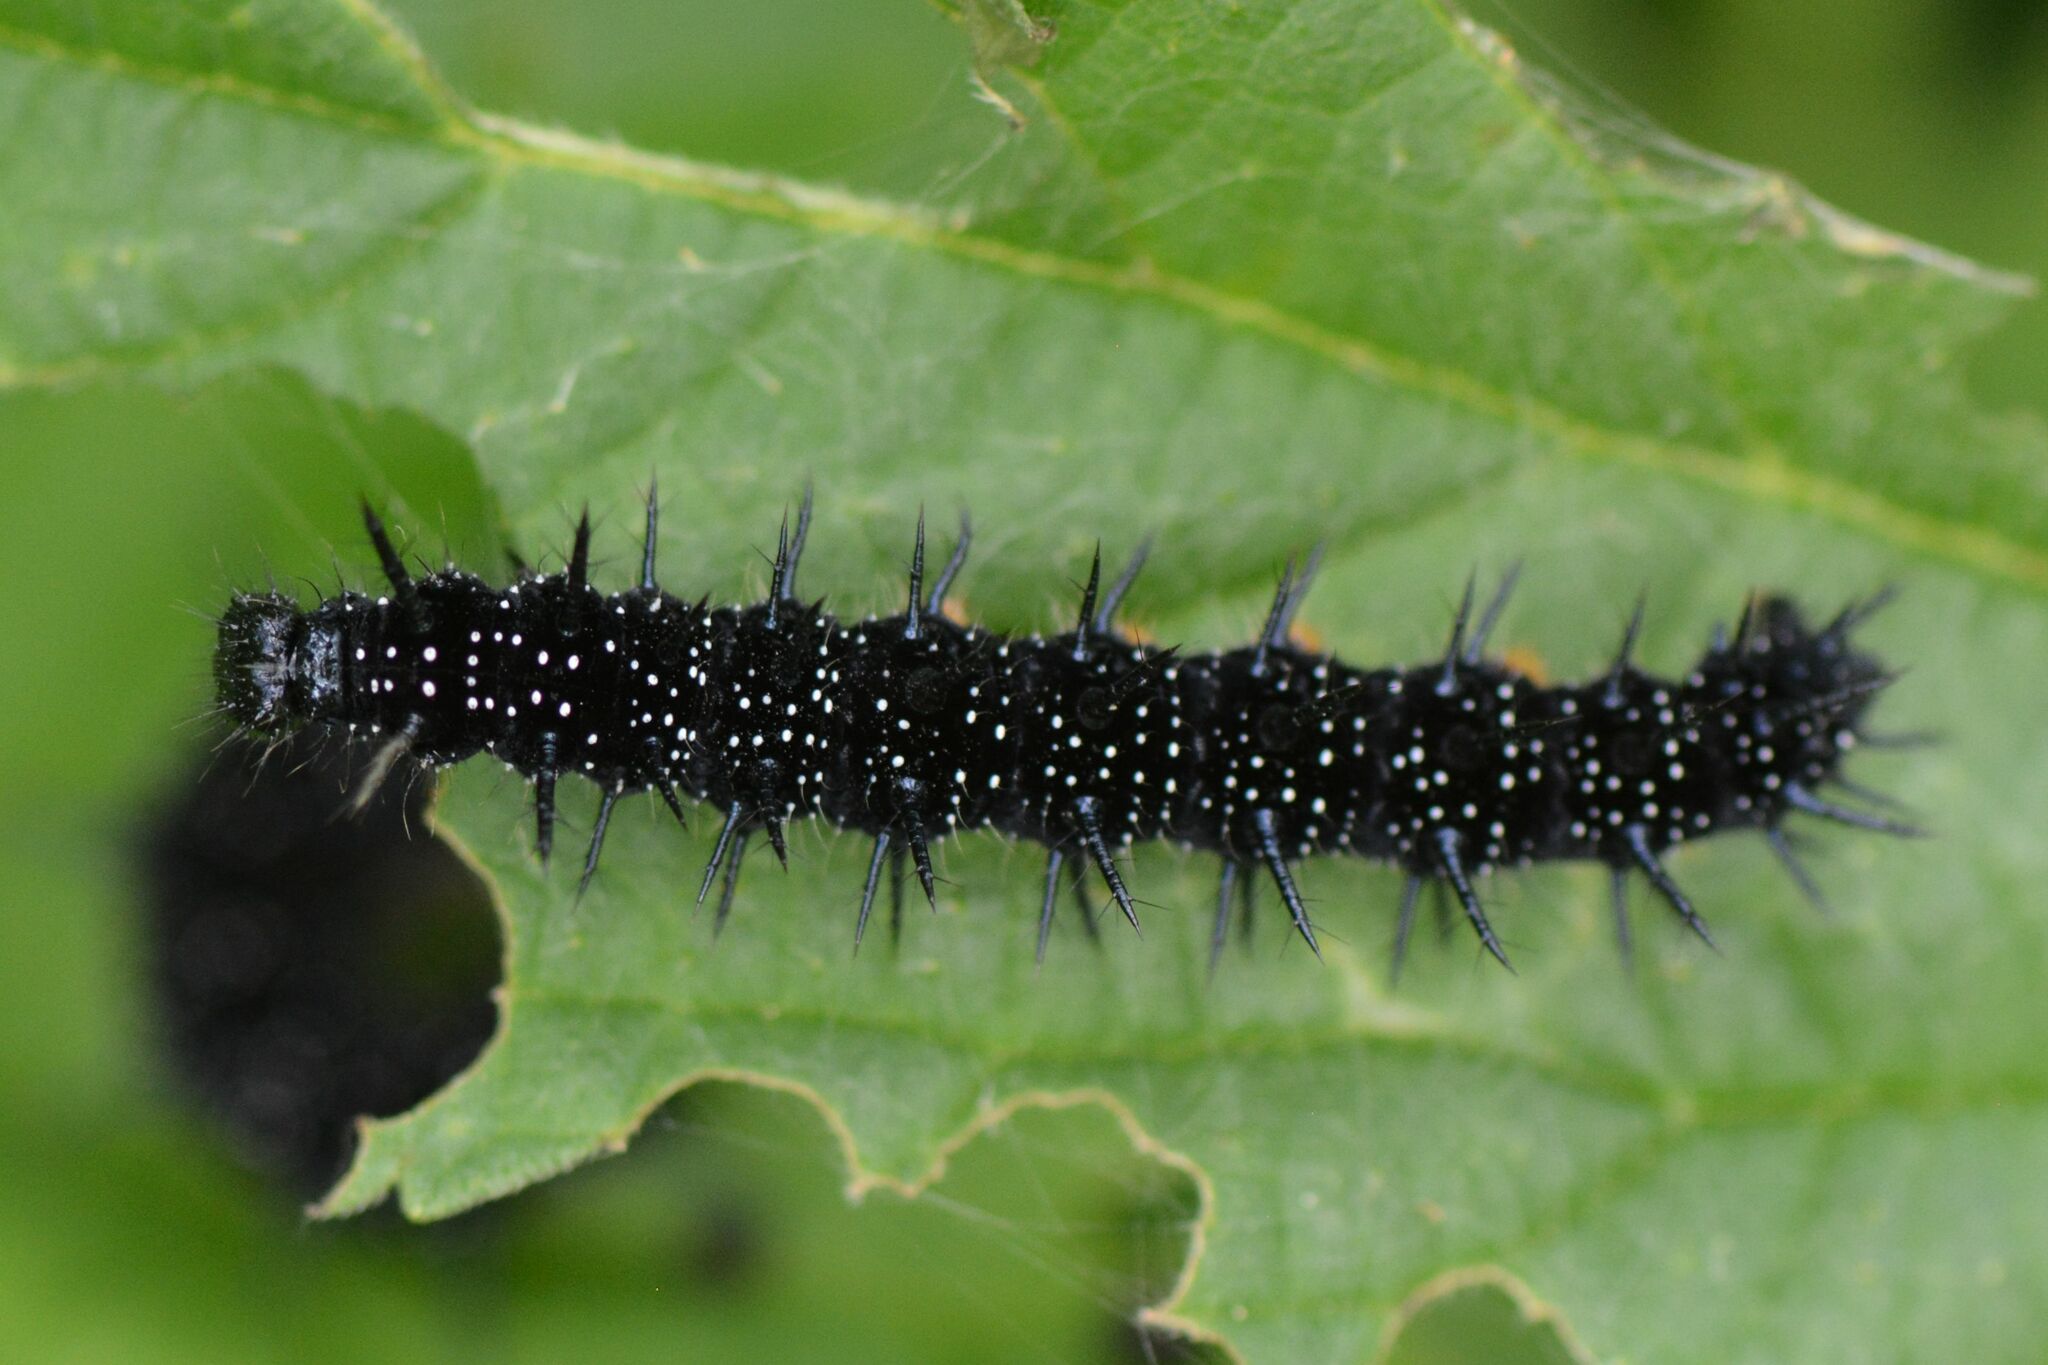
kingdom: Animalia
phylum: Arthropoda
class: Insecta
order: Lepidoptera
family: Nymphalidae
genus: Aglais
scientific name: Aglais io
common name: Peacock
